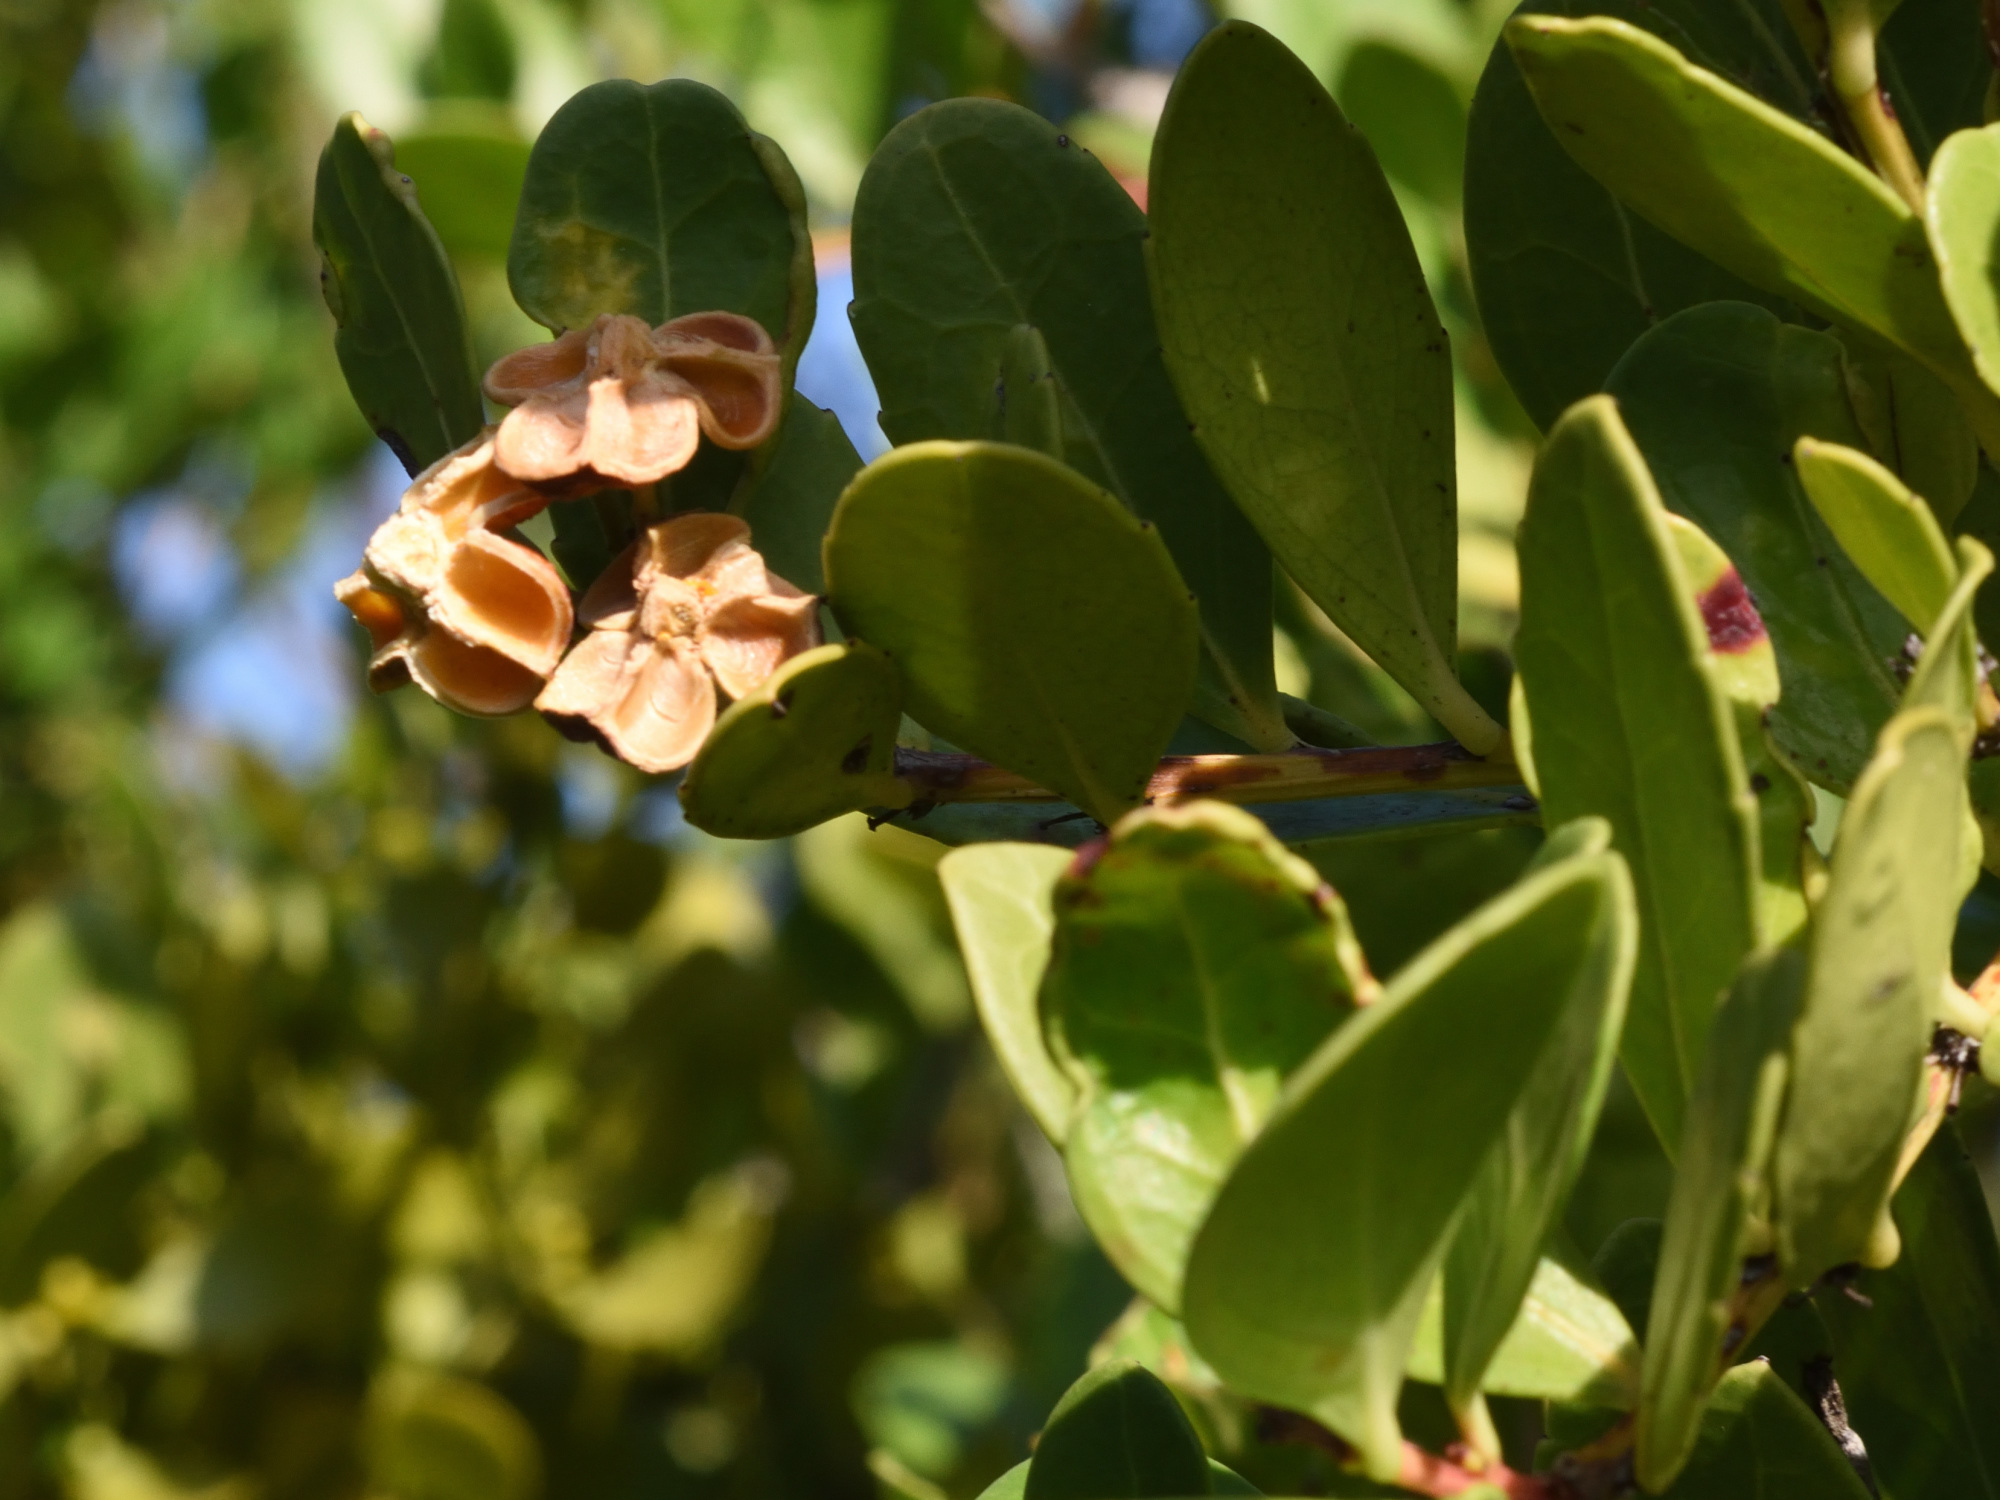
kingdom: Plantae
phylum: Tracheophyta
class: Magnoliopsida
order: Celastrales
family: Celastraceae
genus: Gymnosporia
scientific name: Gymnosporia procumbens
